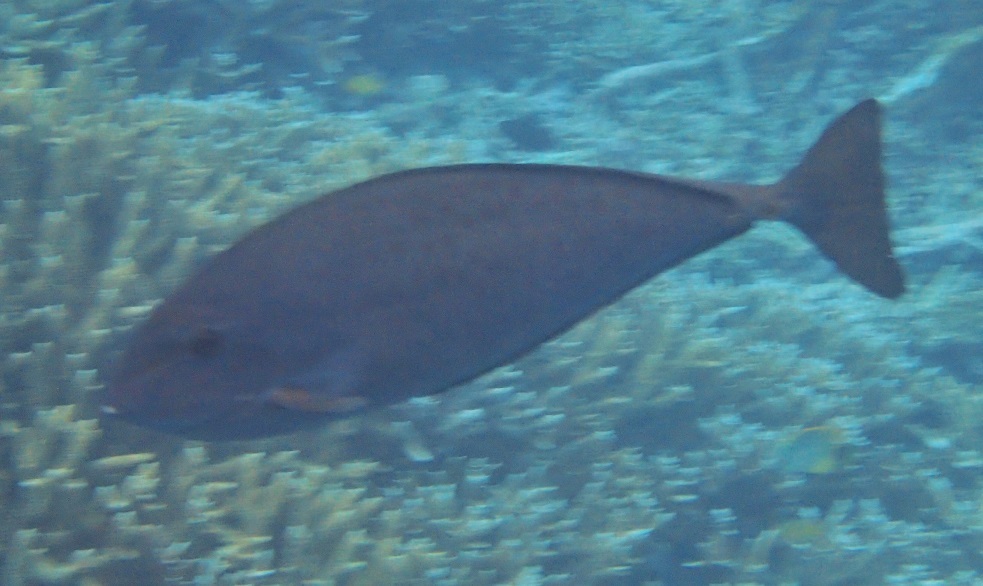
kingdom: Animalia
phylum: Chordata
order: Perciformes
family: Acanthuridae
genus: Naso
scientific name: Naso caesius
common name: Gray unicornfish
